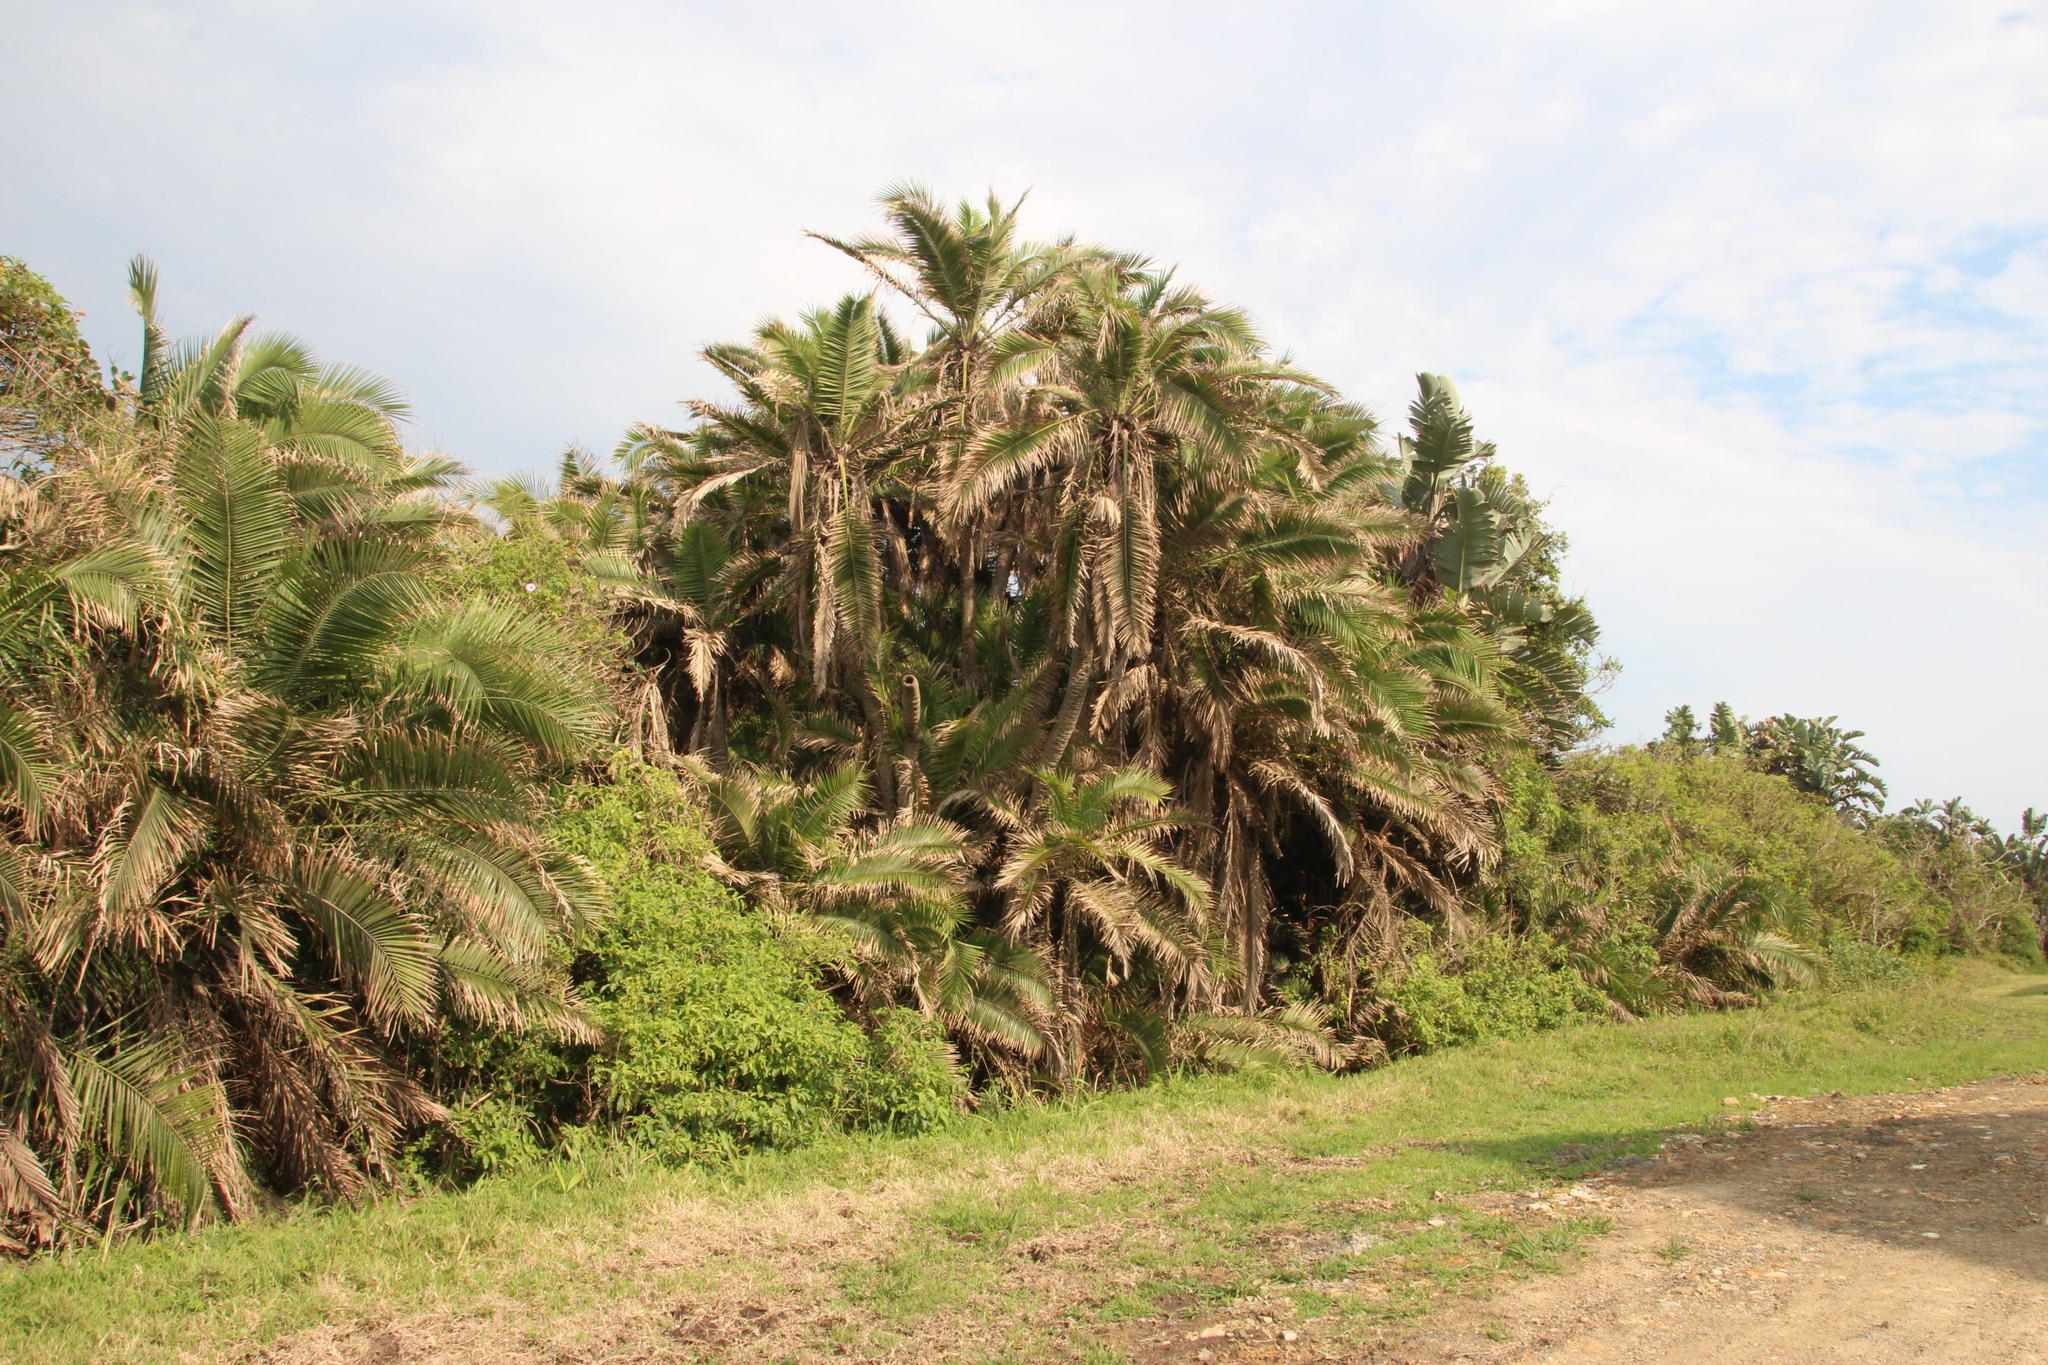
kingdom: Plantae
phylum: Tracheophyta
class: Liliopsida
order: Arecales
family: Arecaceae
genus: Phoenix
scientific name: Phoenix reclinata
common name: Senegal date palm
